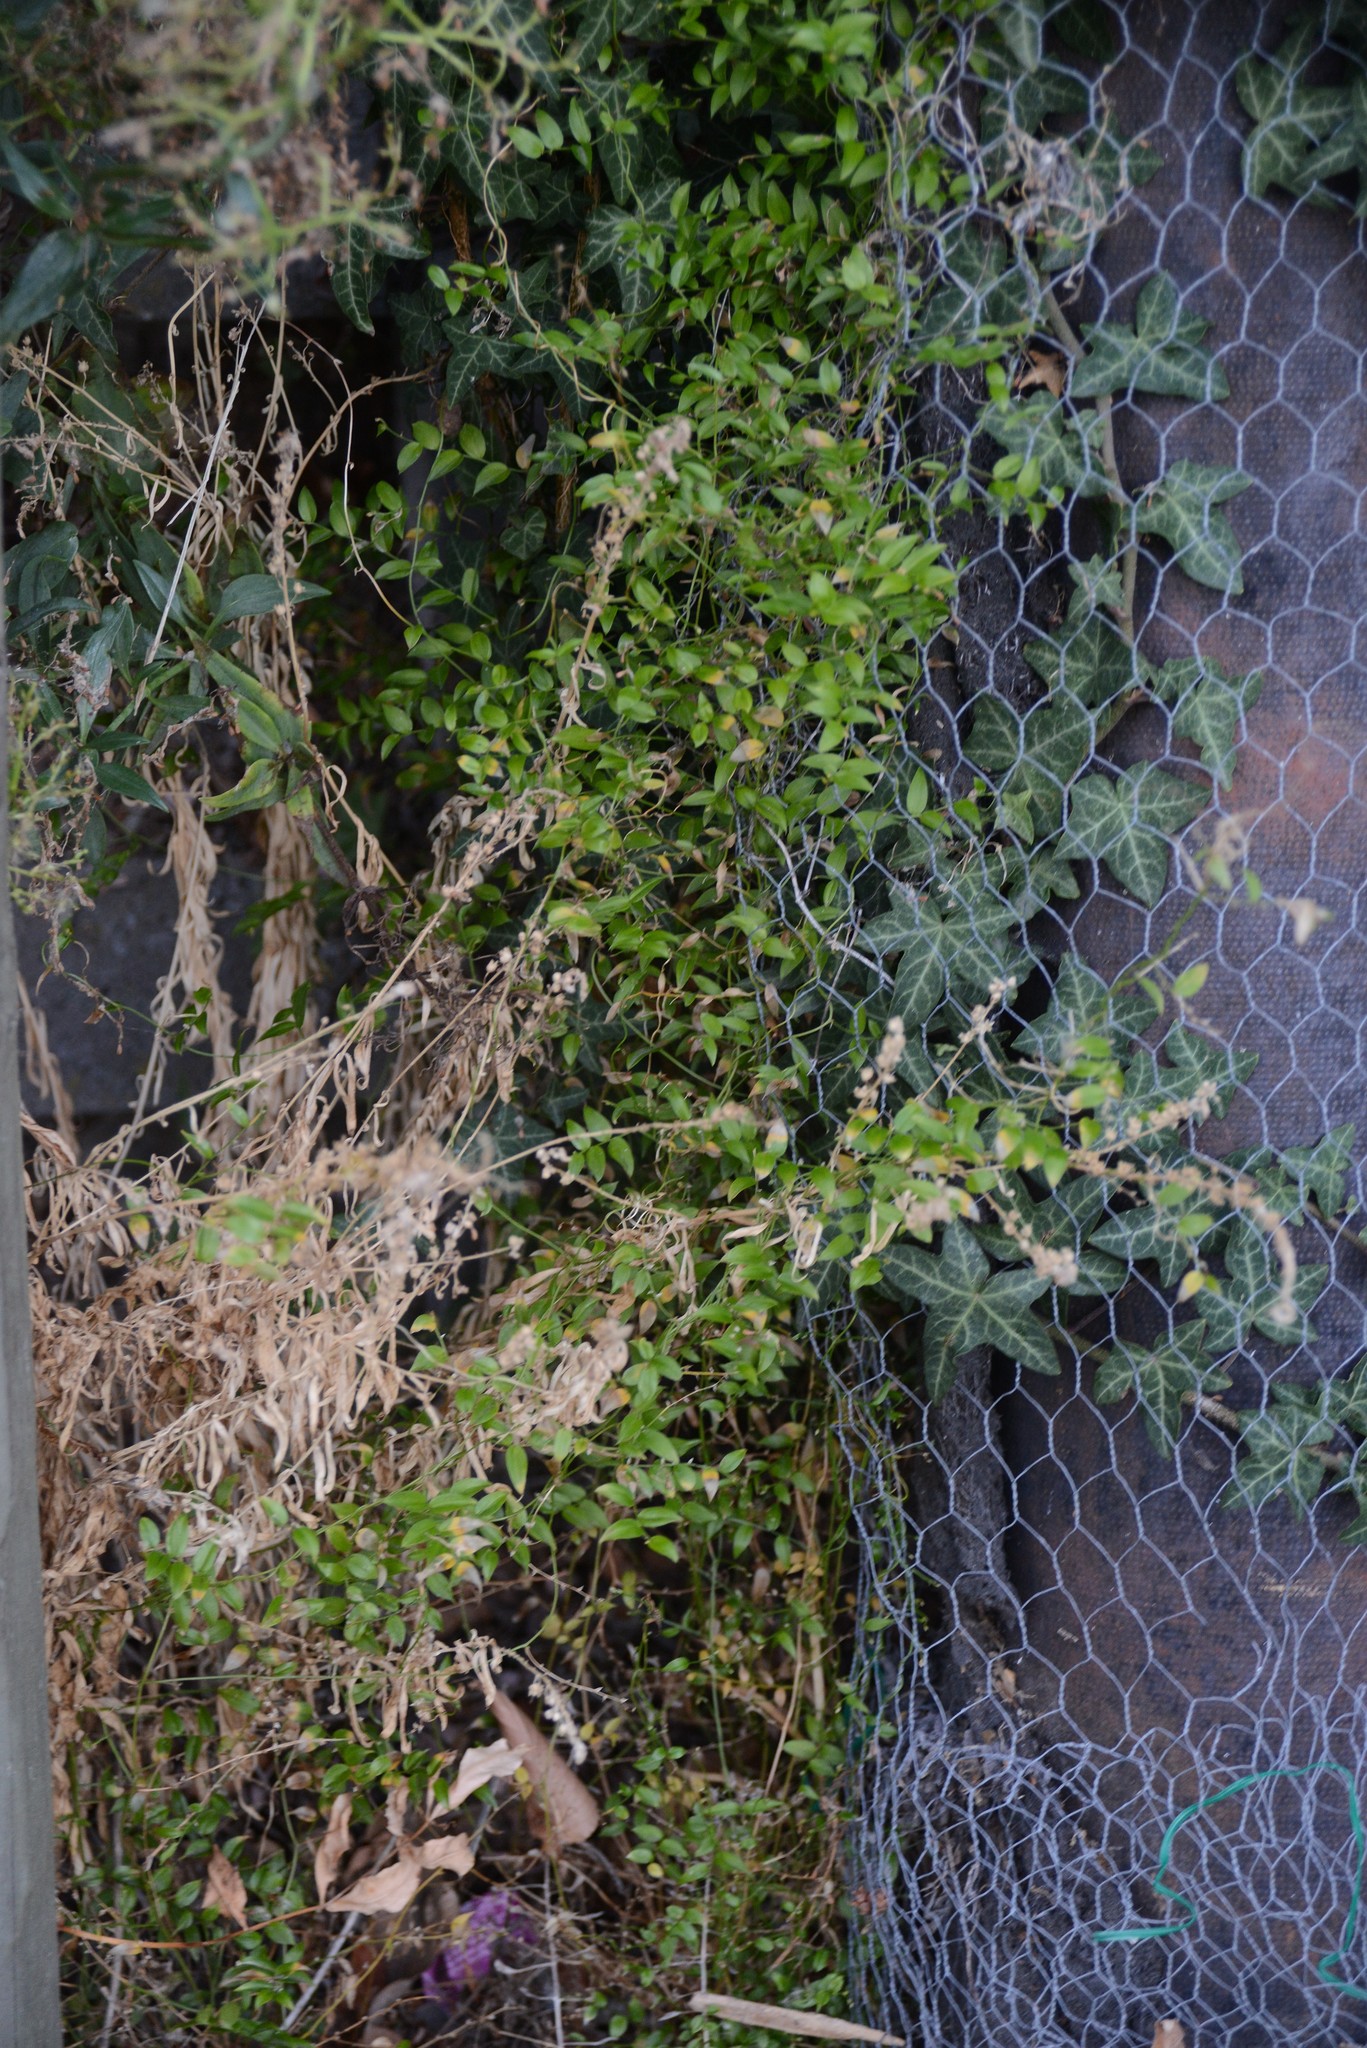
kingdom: Plantae
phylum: Tracheophyta
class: Liliopsida
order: Asparagales
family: Asparagaceae
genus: Asparagus
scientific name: Asparagus asparagoides
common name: African asparagus fern
